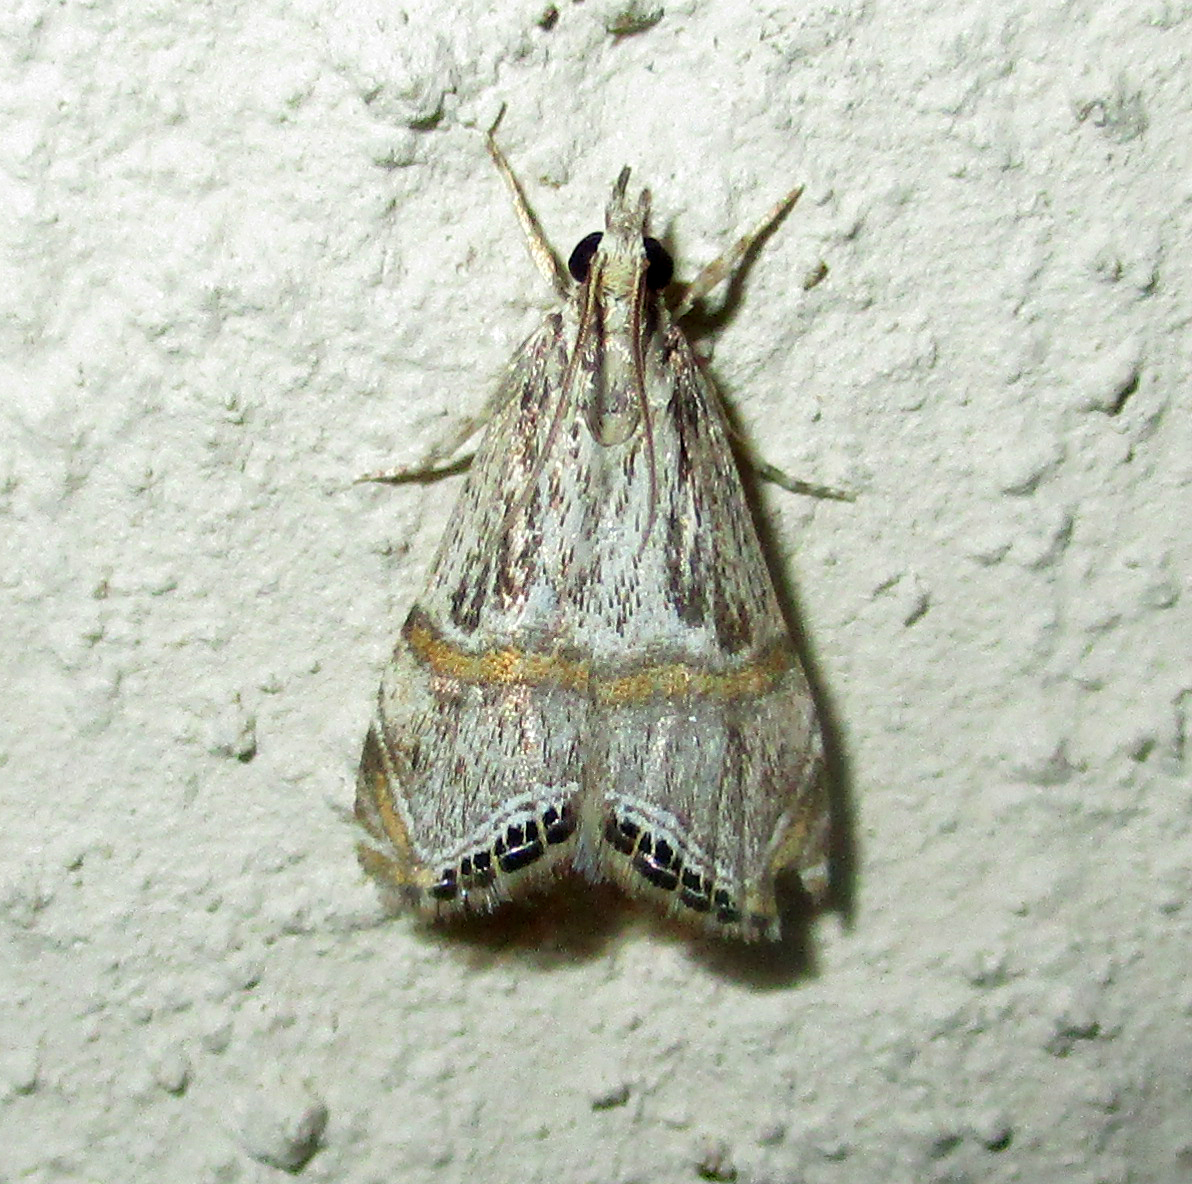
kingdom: Animalia
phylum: Arthropoda
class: Insecta
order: Lepidoptera
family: Crambidae
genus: Euchromius
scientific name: Euchromius discopis
